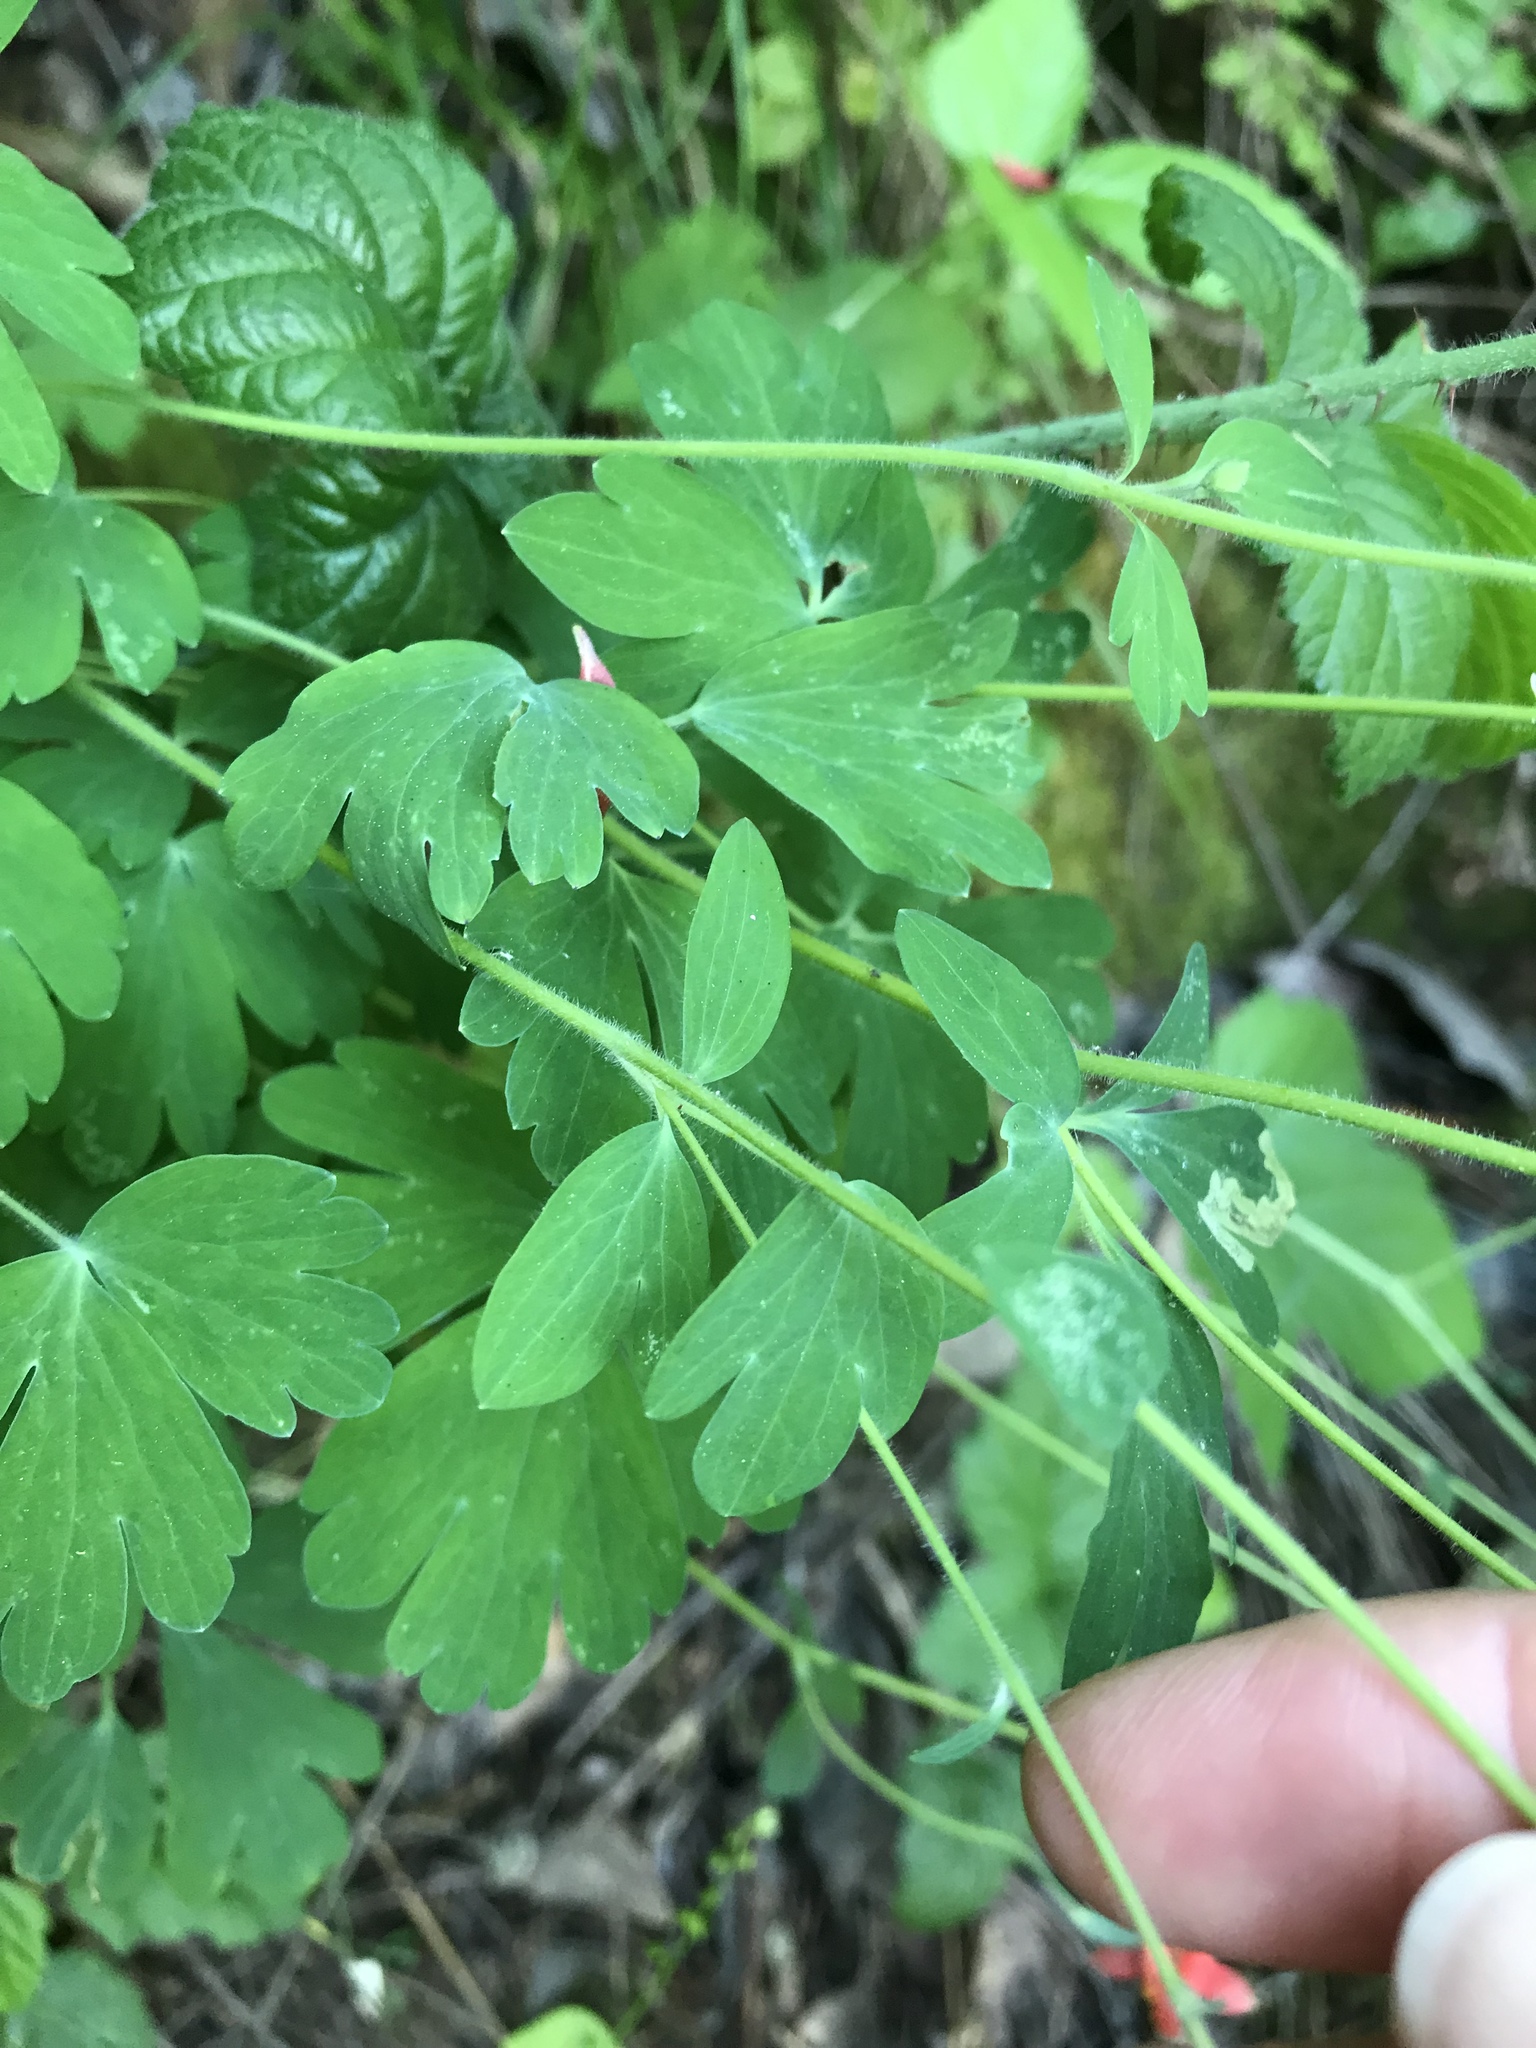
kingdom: Plantae
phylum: Tracheophyta
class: Magnoliopsida
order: Ranunculales
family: Ranunculaceae
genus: Aquilegia
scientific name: Aquilegia formosa
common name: Sitka columbine
